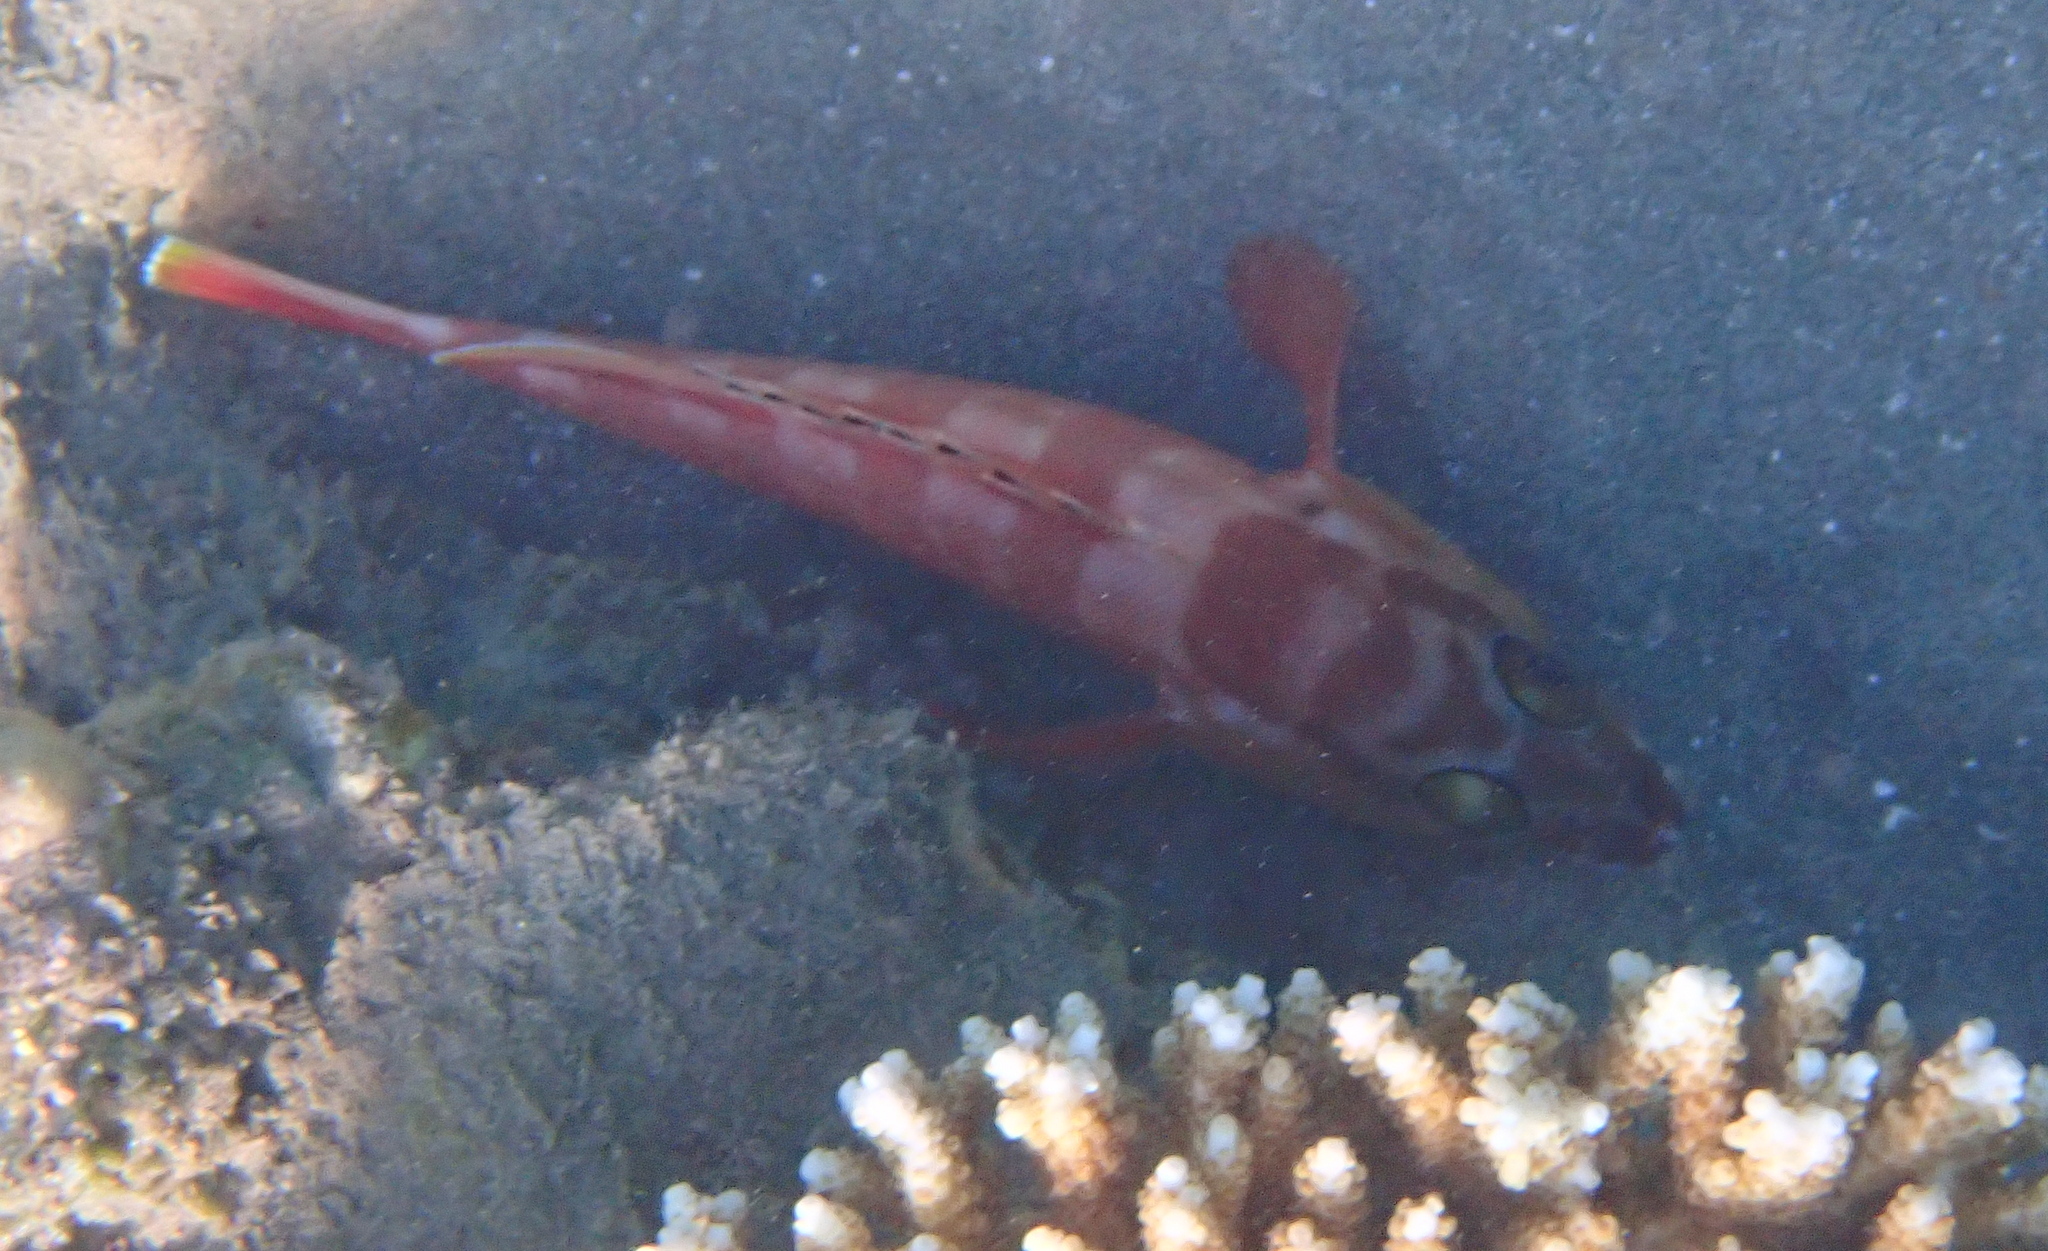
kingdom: Animalia
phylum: Chordata
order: Perciformes
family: Serranidae
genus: Epinephelus
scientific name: Epinephelus fasciatus
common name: Blacktip grouper
